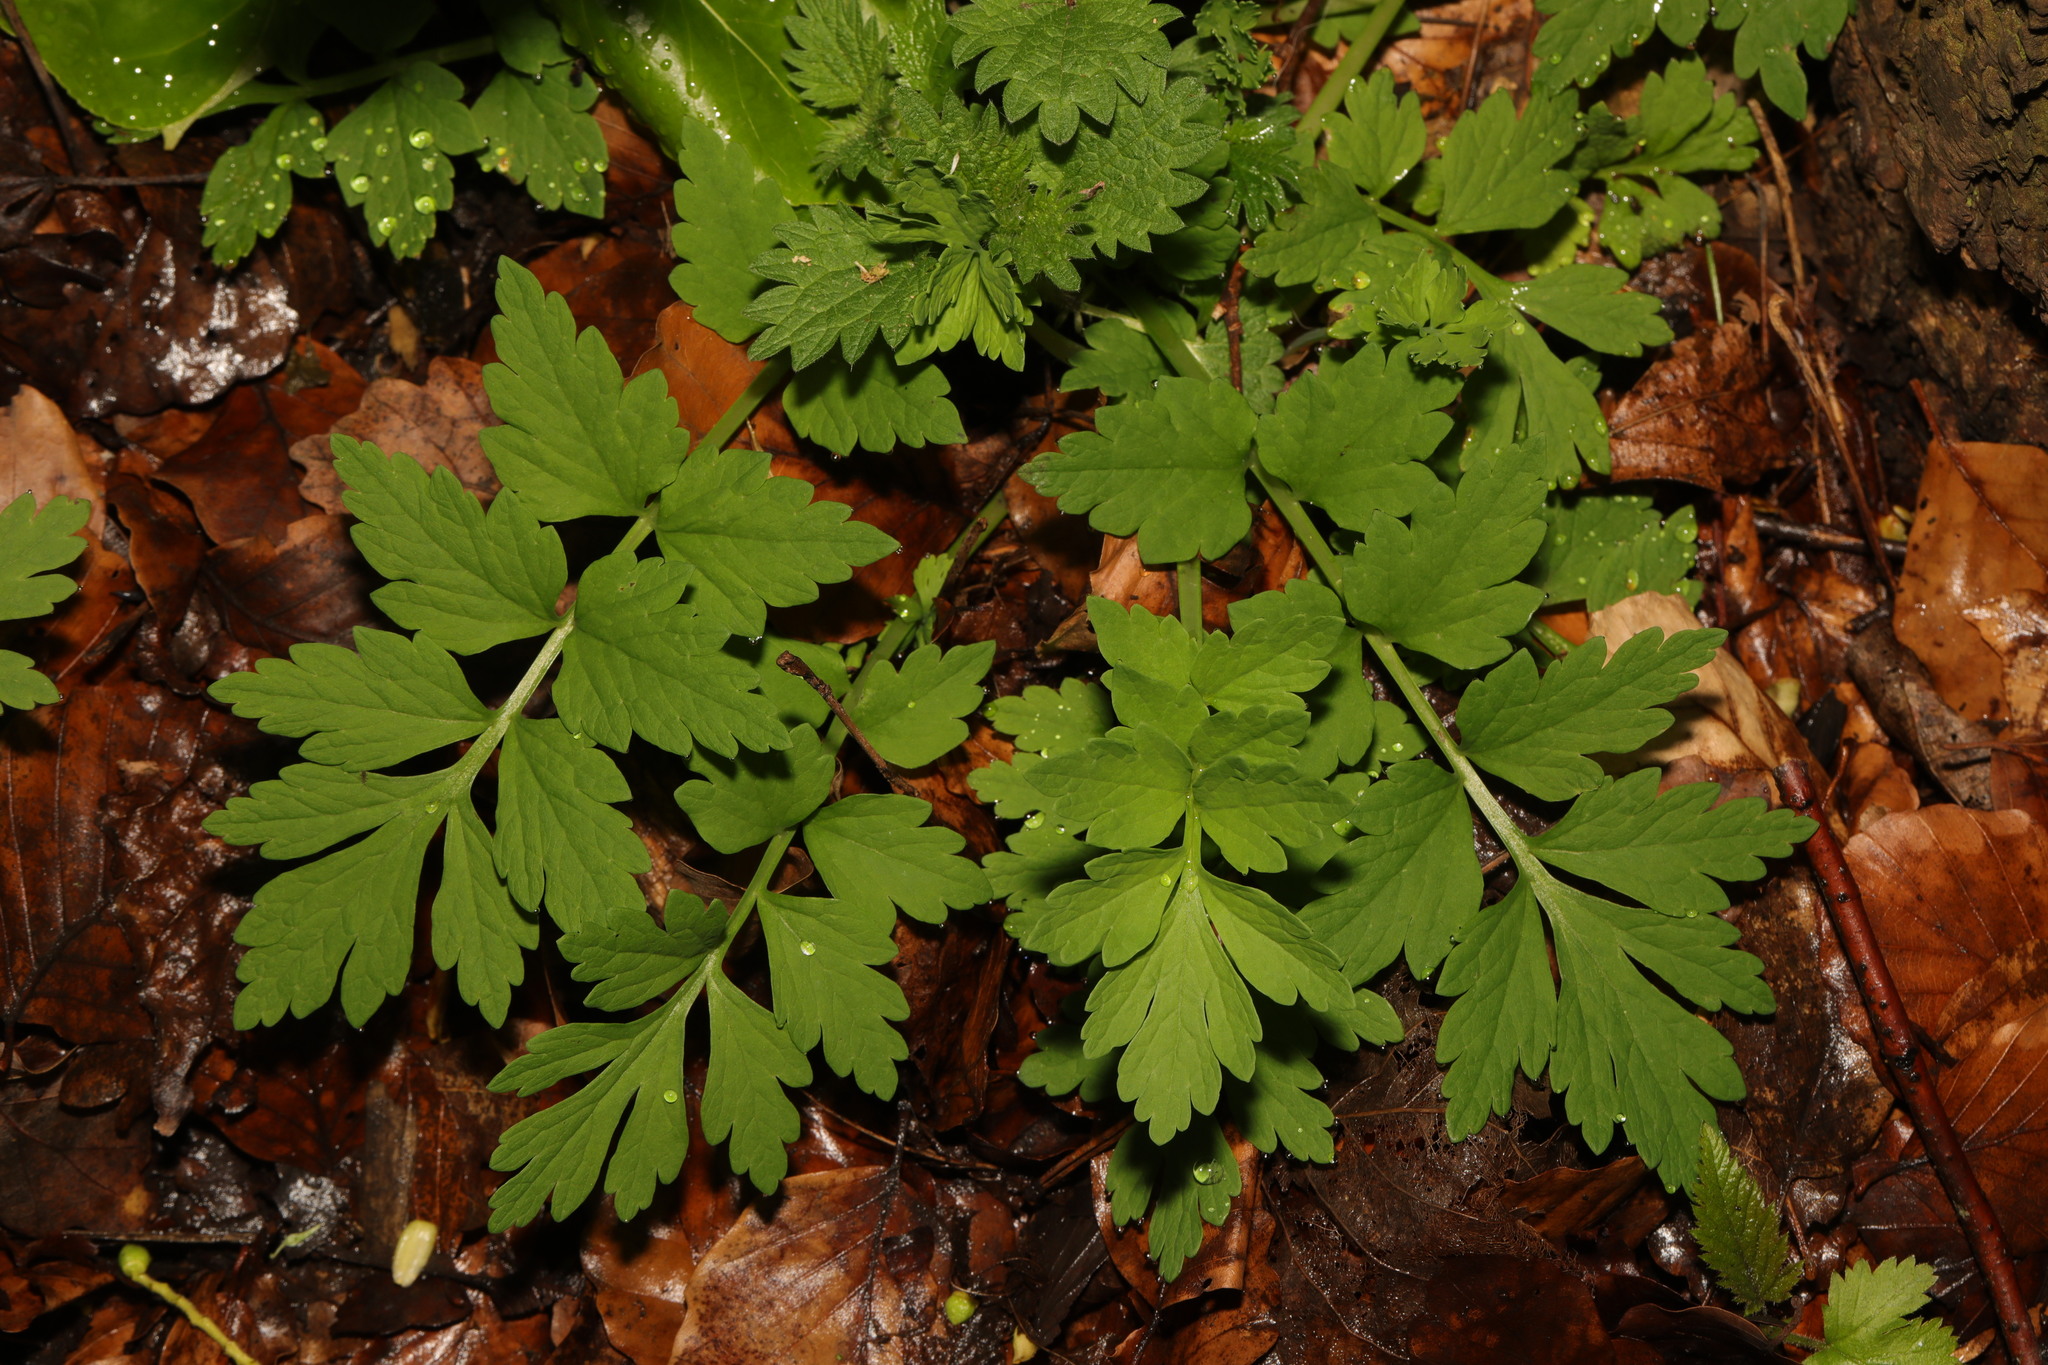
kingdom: Plantae
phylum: Tracheophyta
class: Magnoliopsida
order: Ranunculales
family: Papaveraceae
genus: Papaver
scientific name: Papaver cambricum
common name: Poppy
